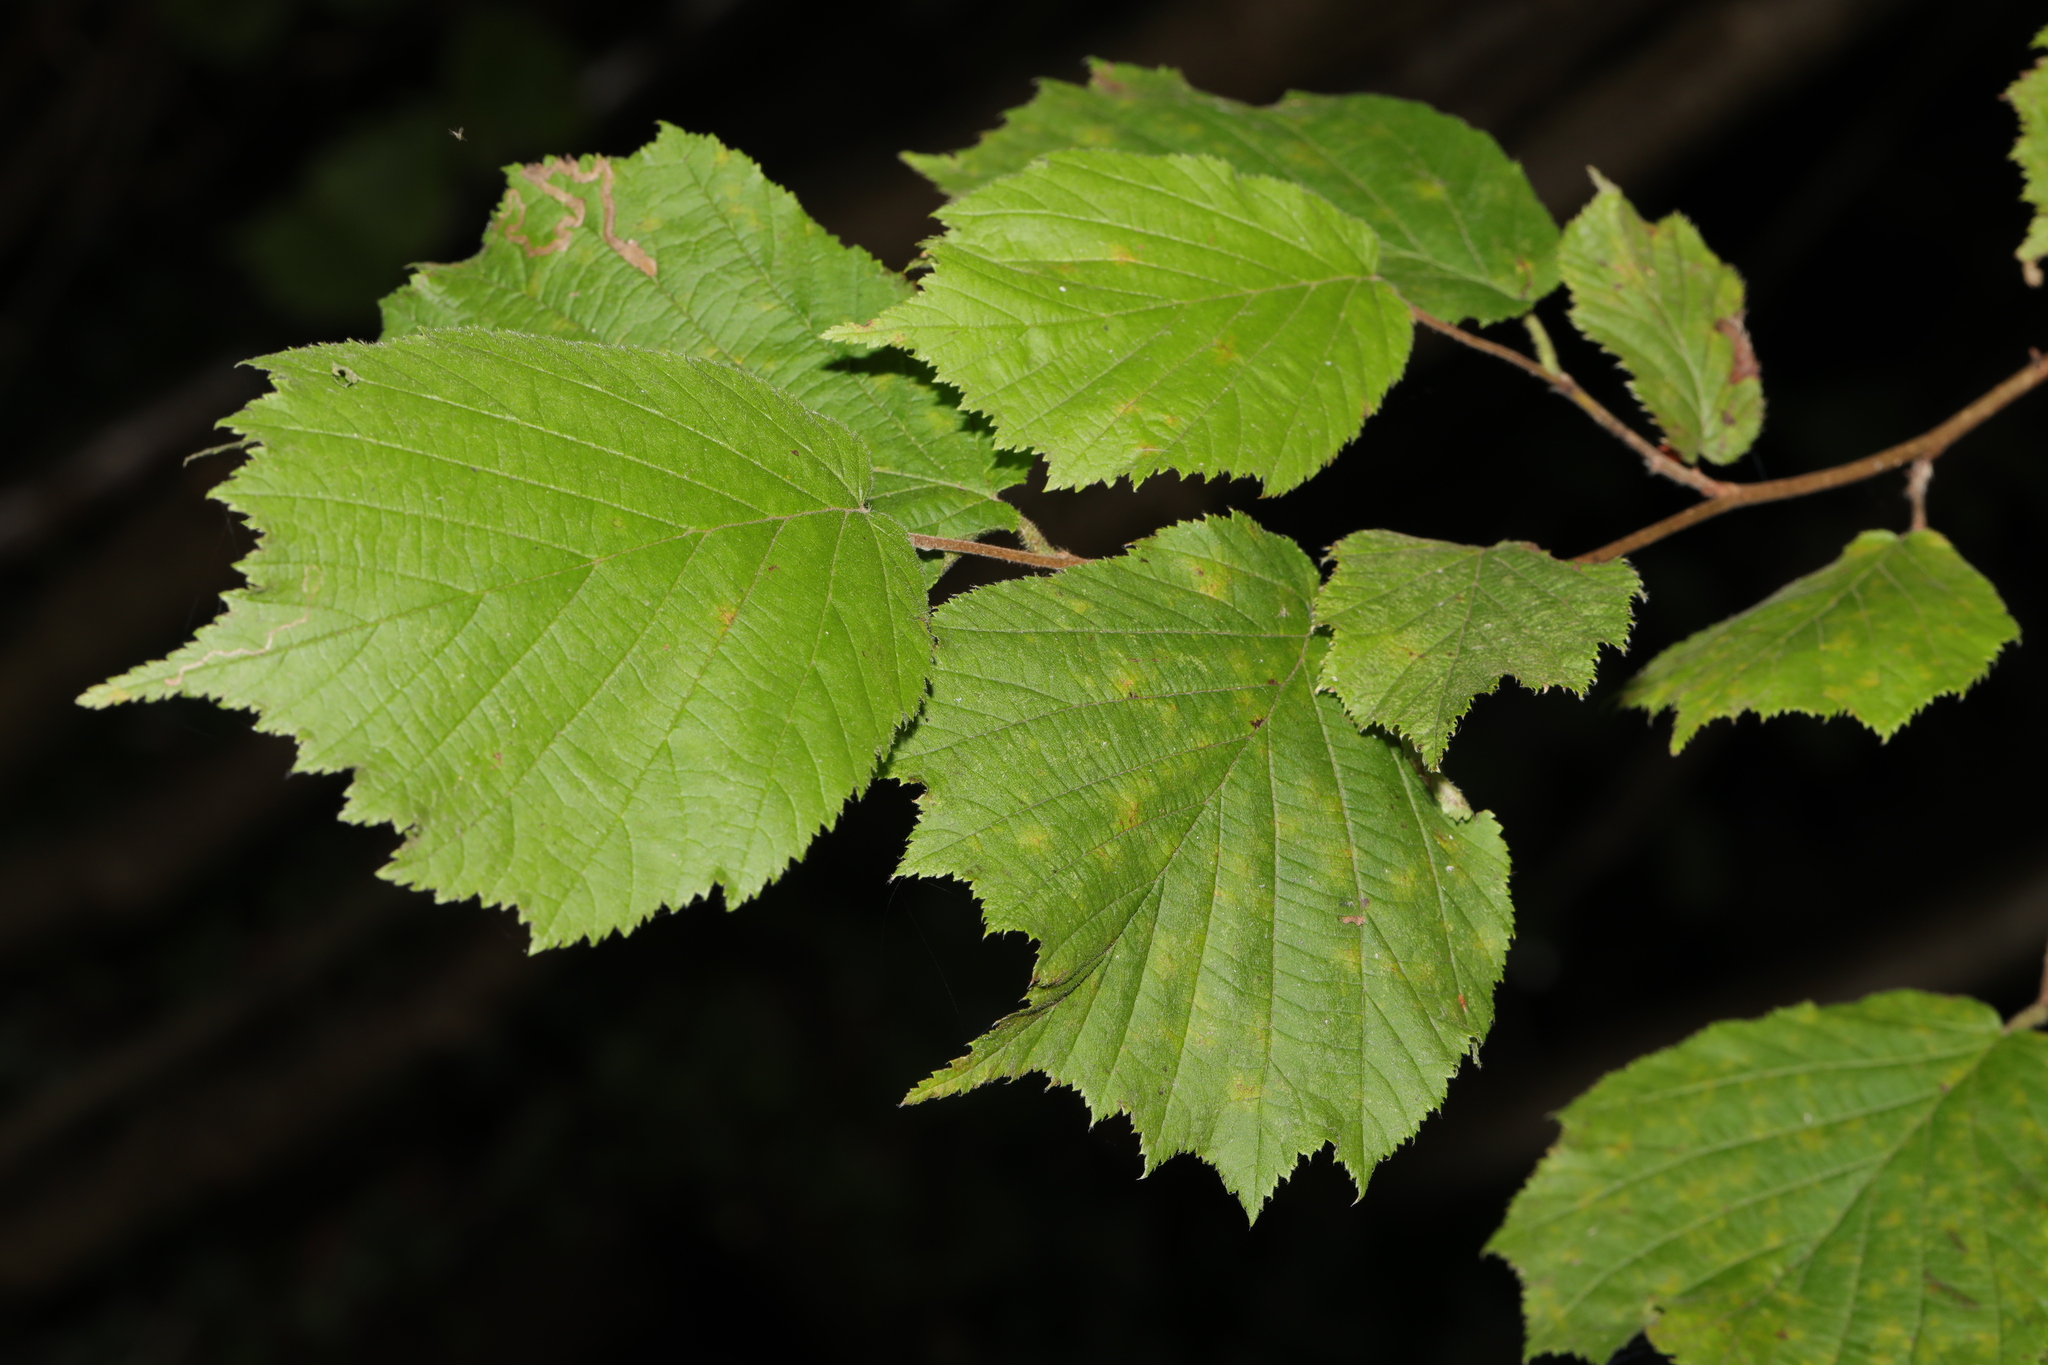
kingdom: Plantae
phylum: Tracheophyta
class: Magnoliopsida
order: Fagales
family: Betulaceae
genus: Corylus
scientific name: Corylus avellana
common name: European hazel
